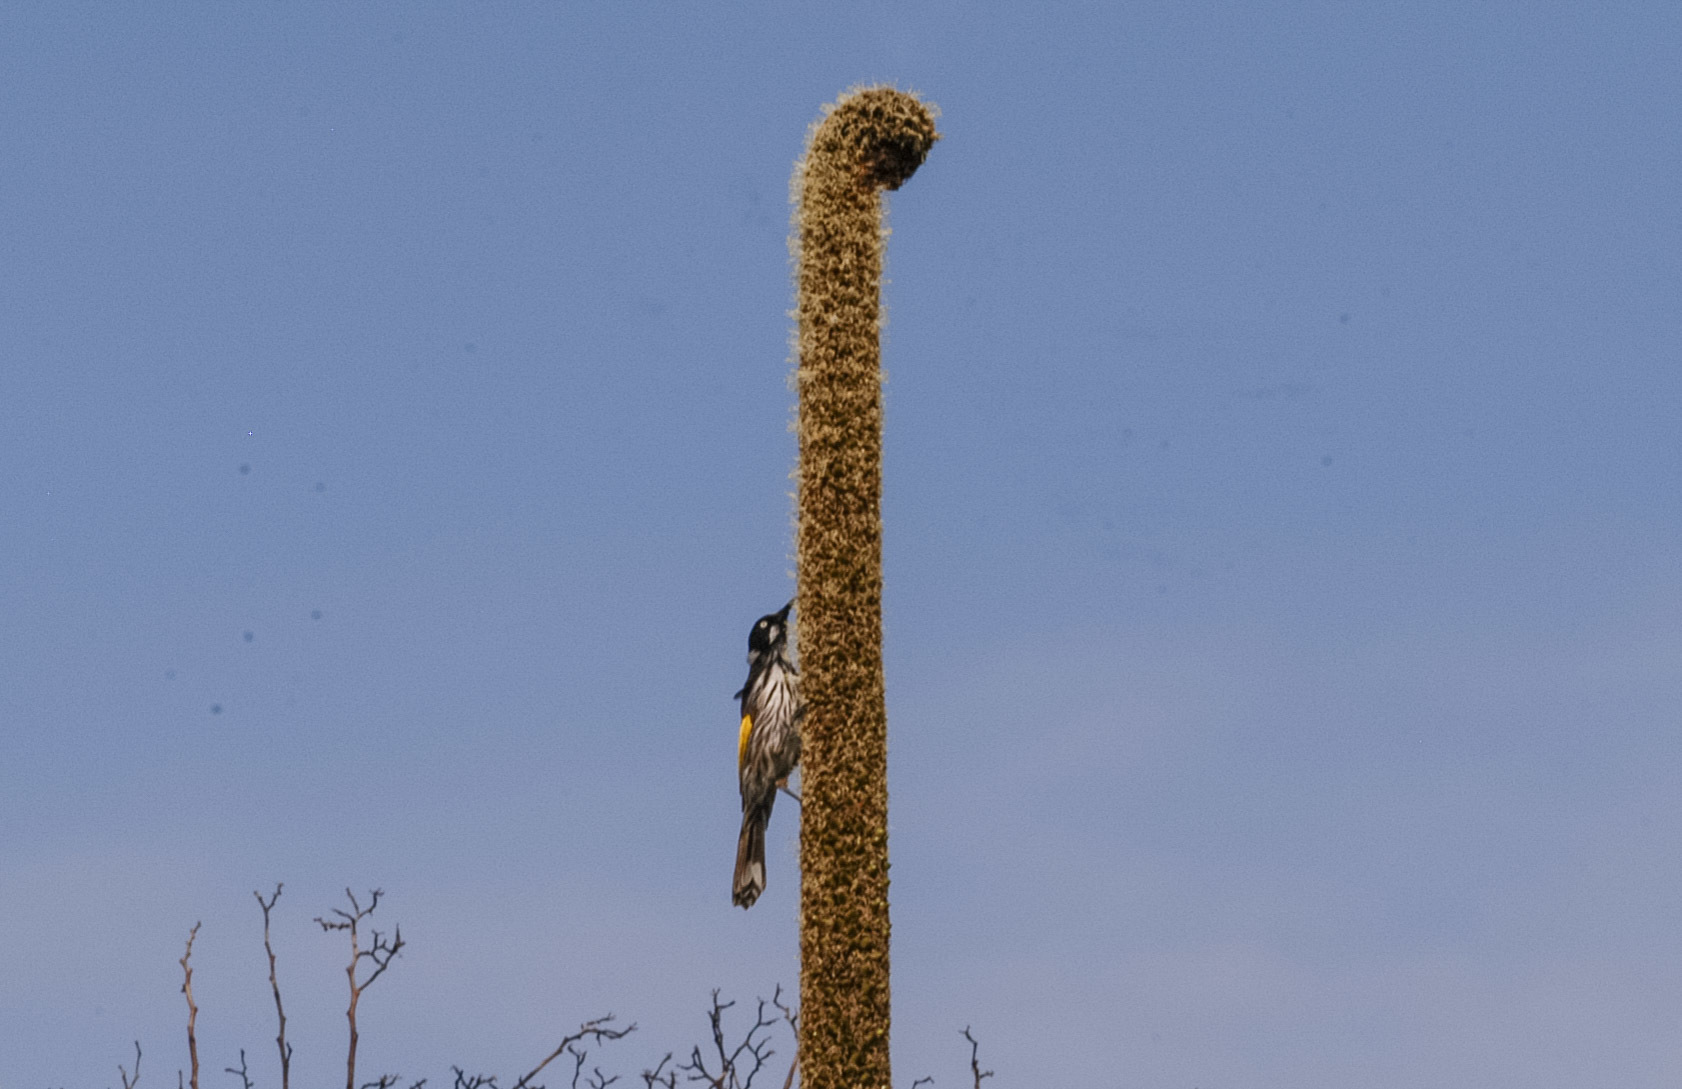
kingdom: Animalia
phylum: Chordata
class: Aves
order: Passeriformes
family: Meliphagidae
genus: Phylidonyris
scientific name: Phylidonyris novaehollandiae
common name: New holland honeyeater
